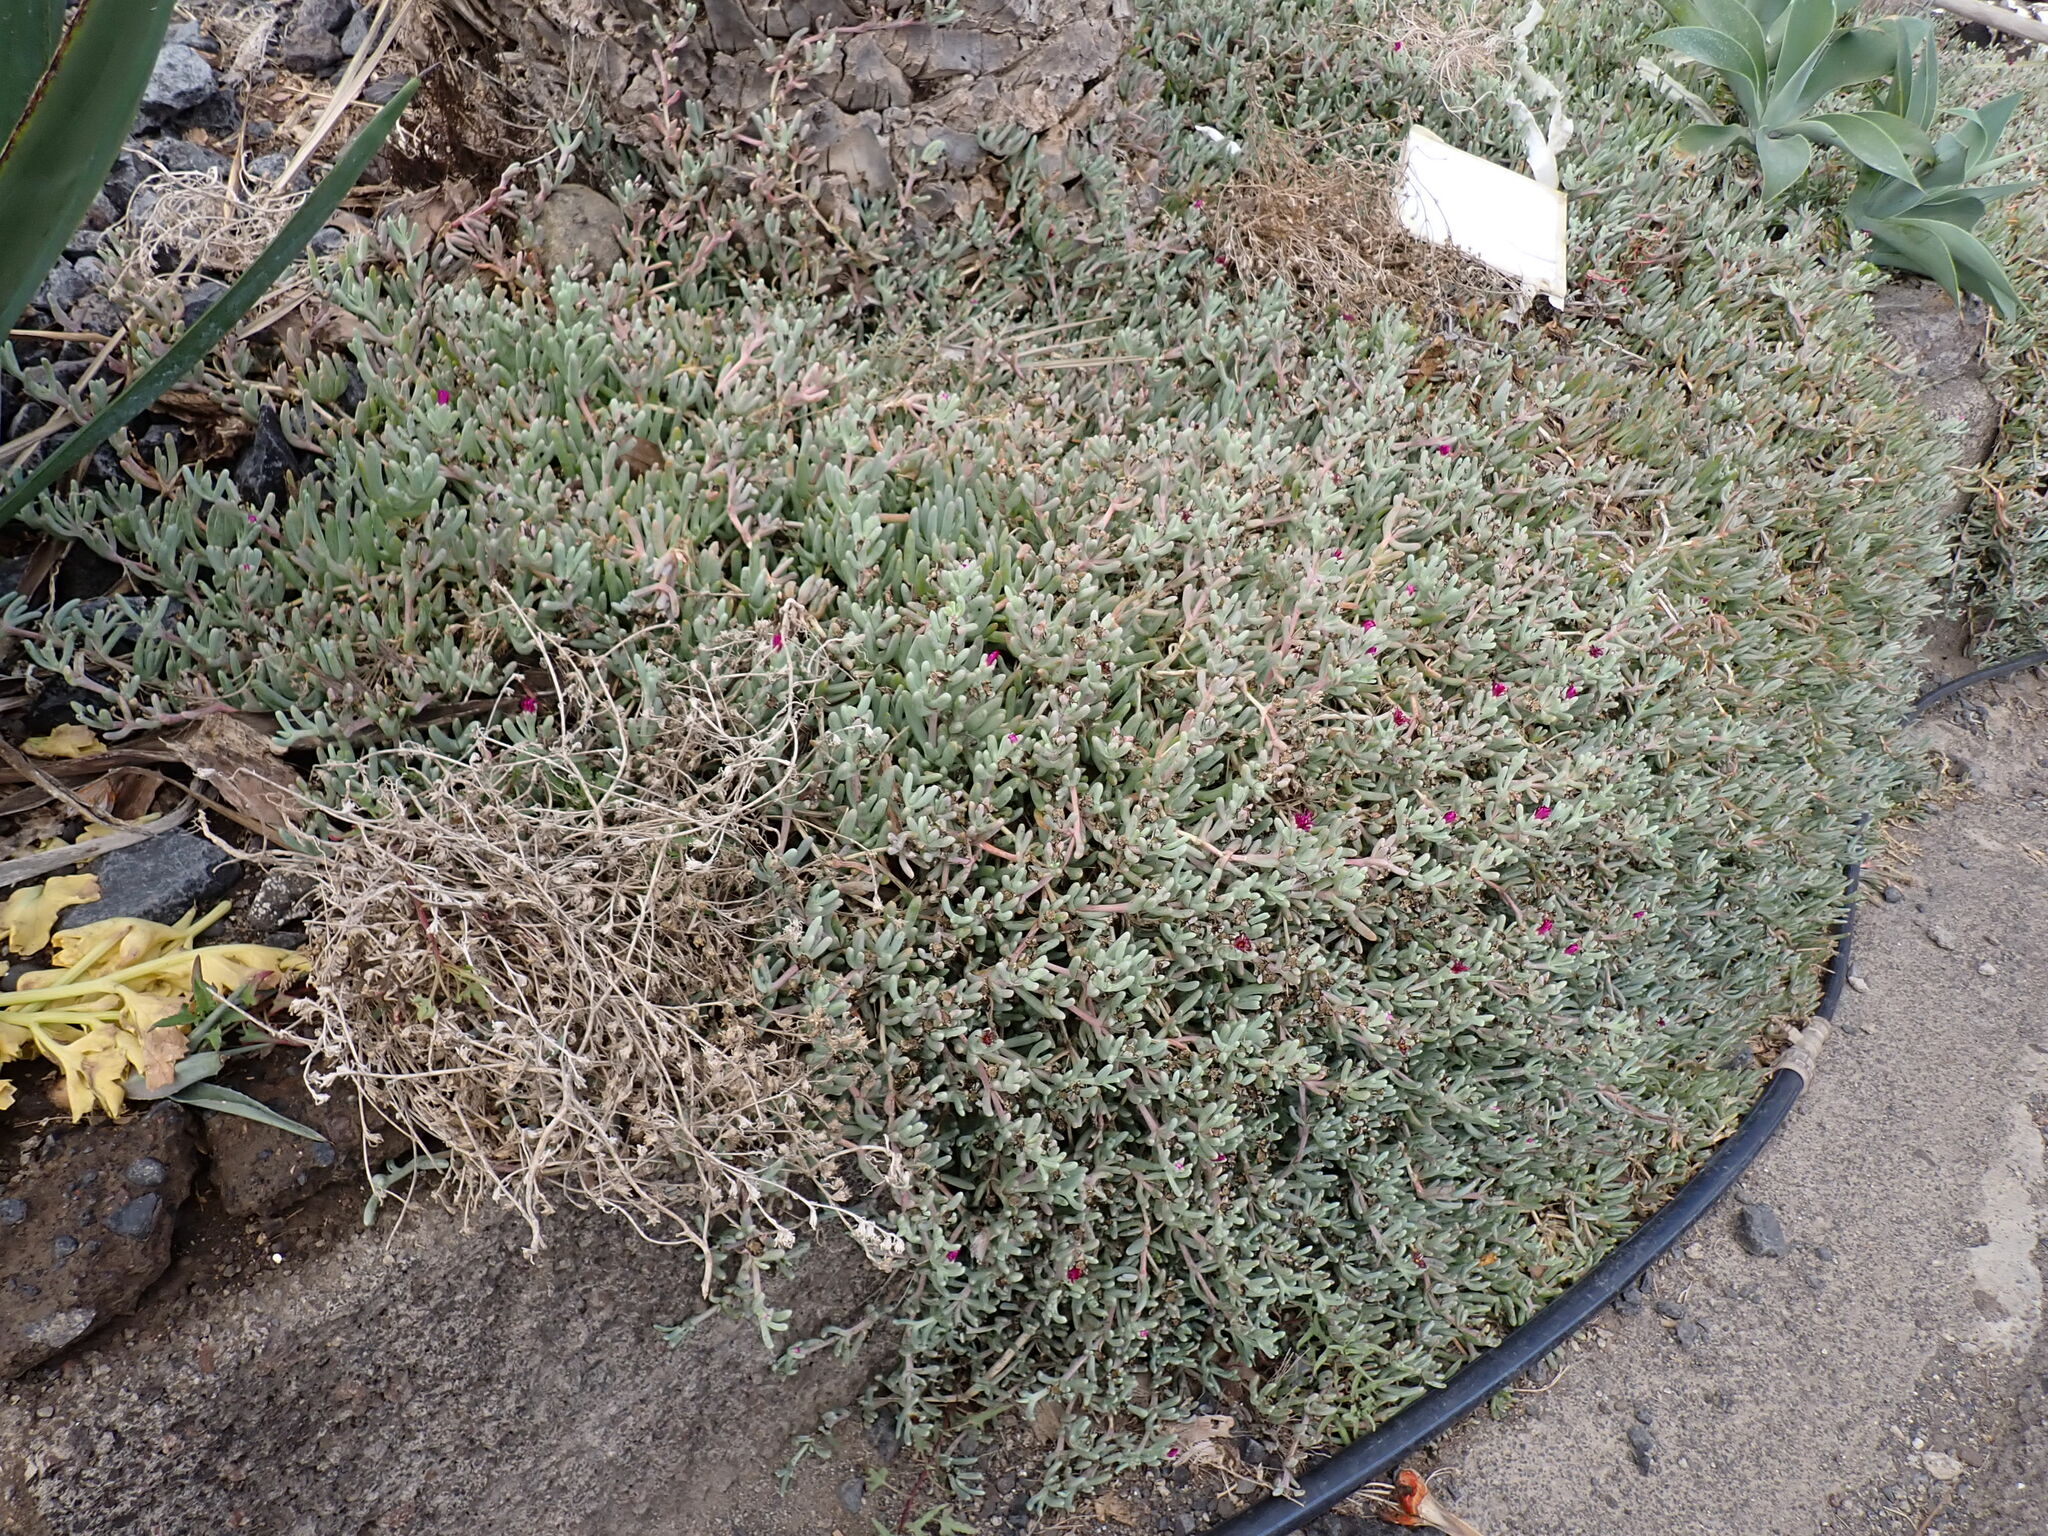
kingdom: Plantae
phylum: Tracheophyta
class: Magnoliopsida
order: Caryophyllales
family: Aizoaceae
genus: Malephora
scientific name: Malephora crocea
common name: Coppery mesemb
